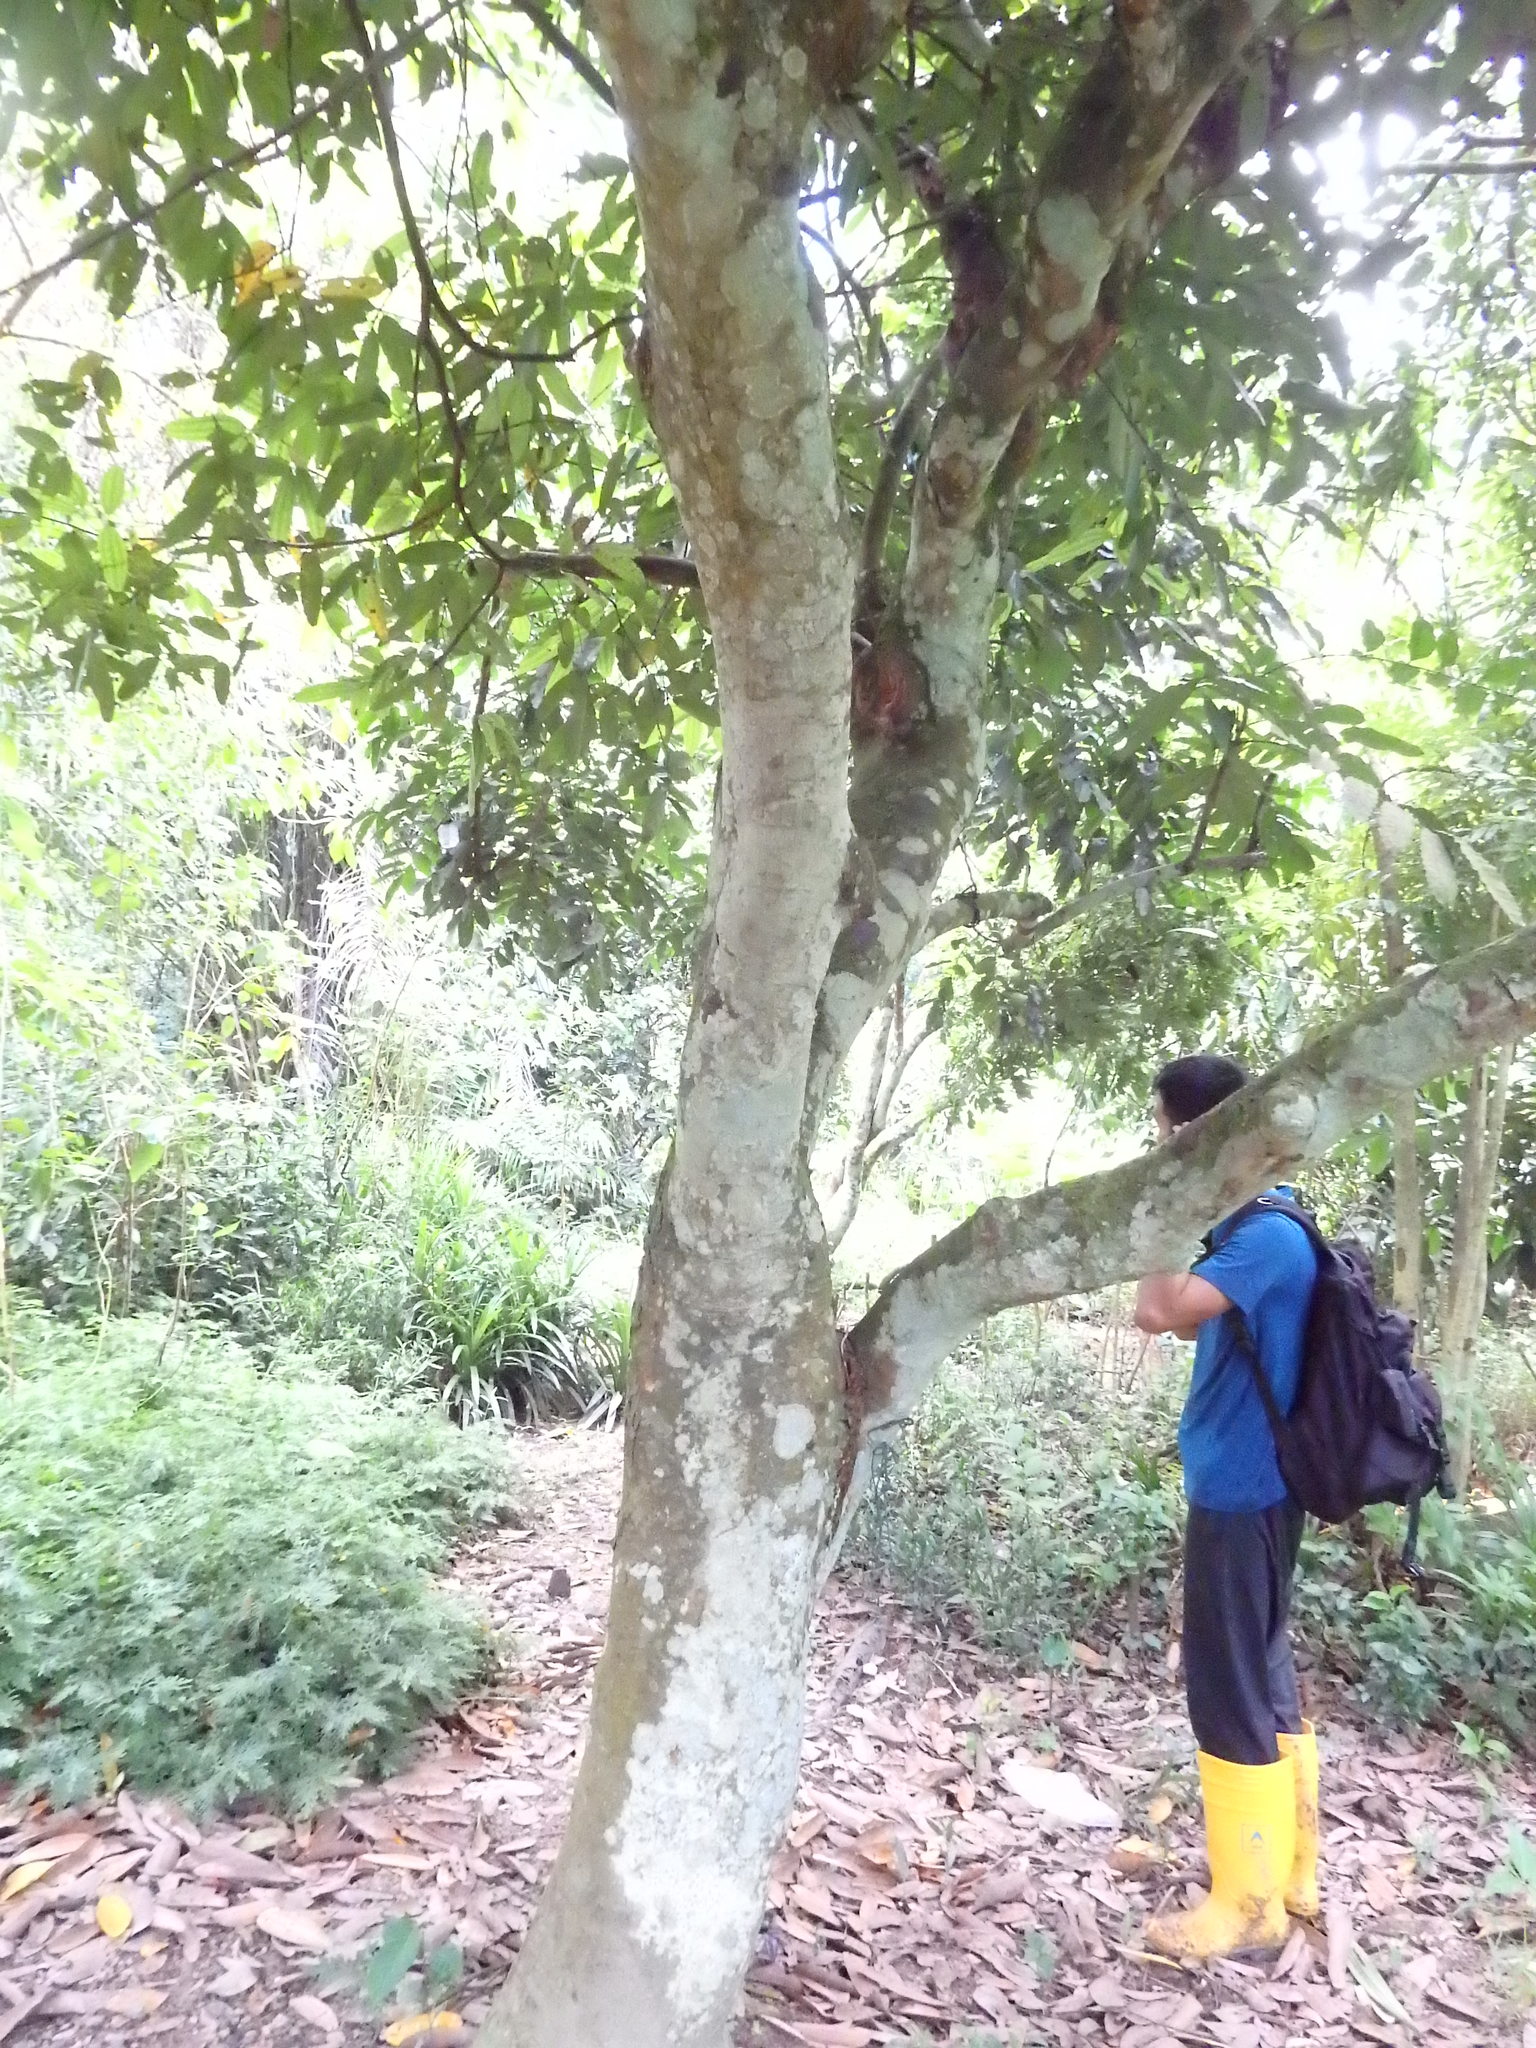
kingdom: Plantae
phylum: Tracheophyta
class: Magnoliopsida
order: Sapindales
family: Meliaceae
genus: Aphanamixis
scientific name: Aphanamixis polystachya
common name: Pithraj tree
